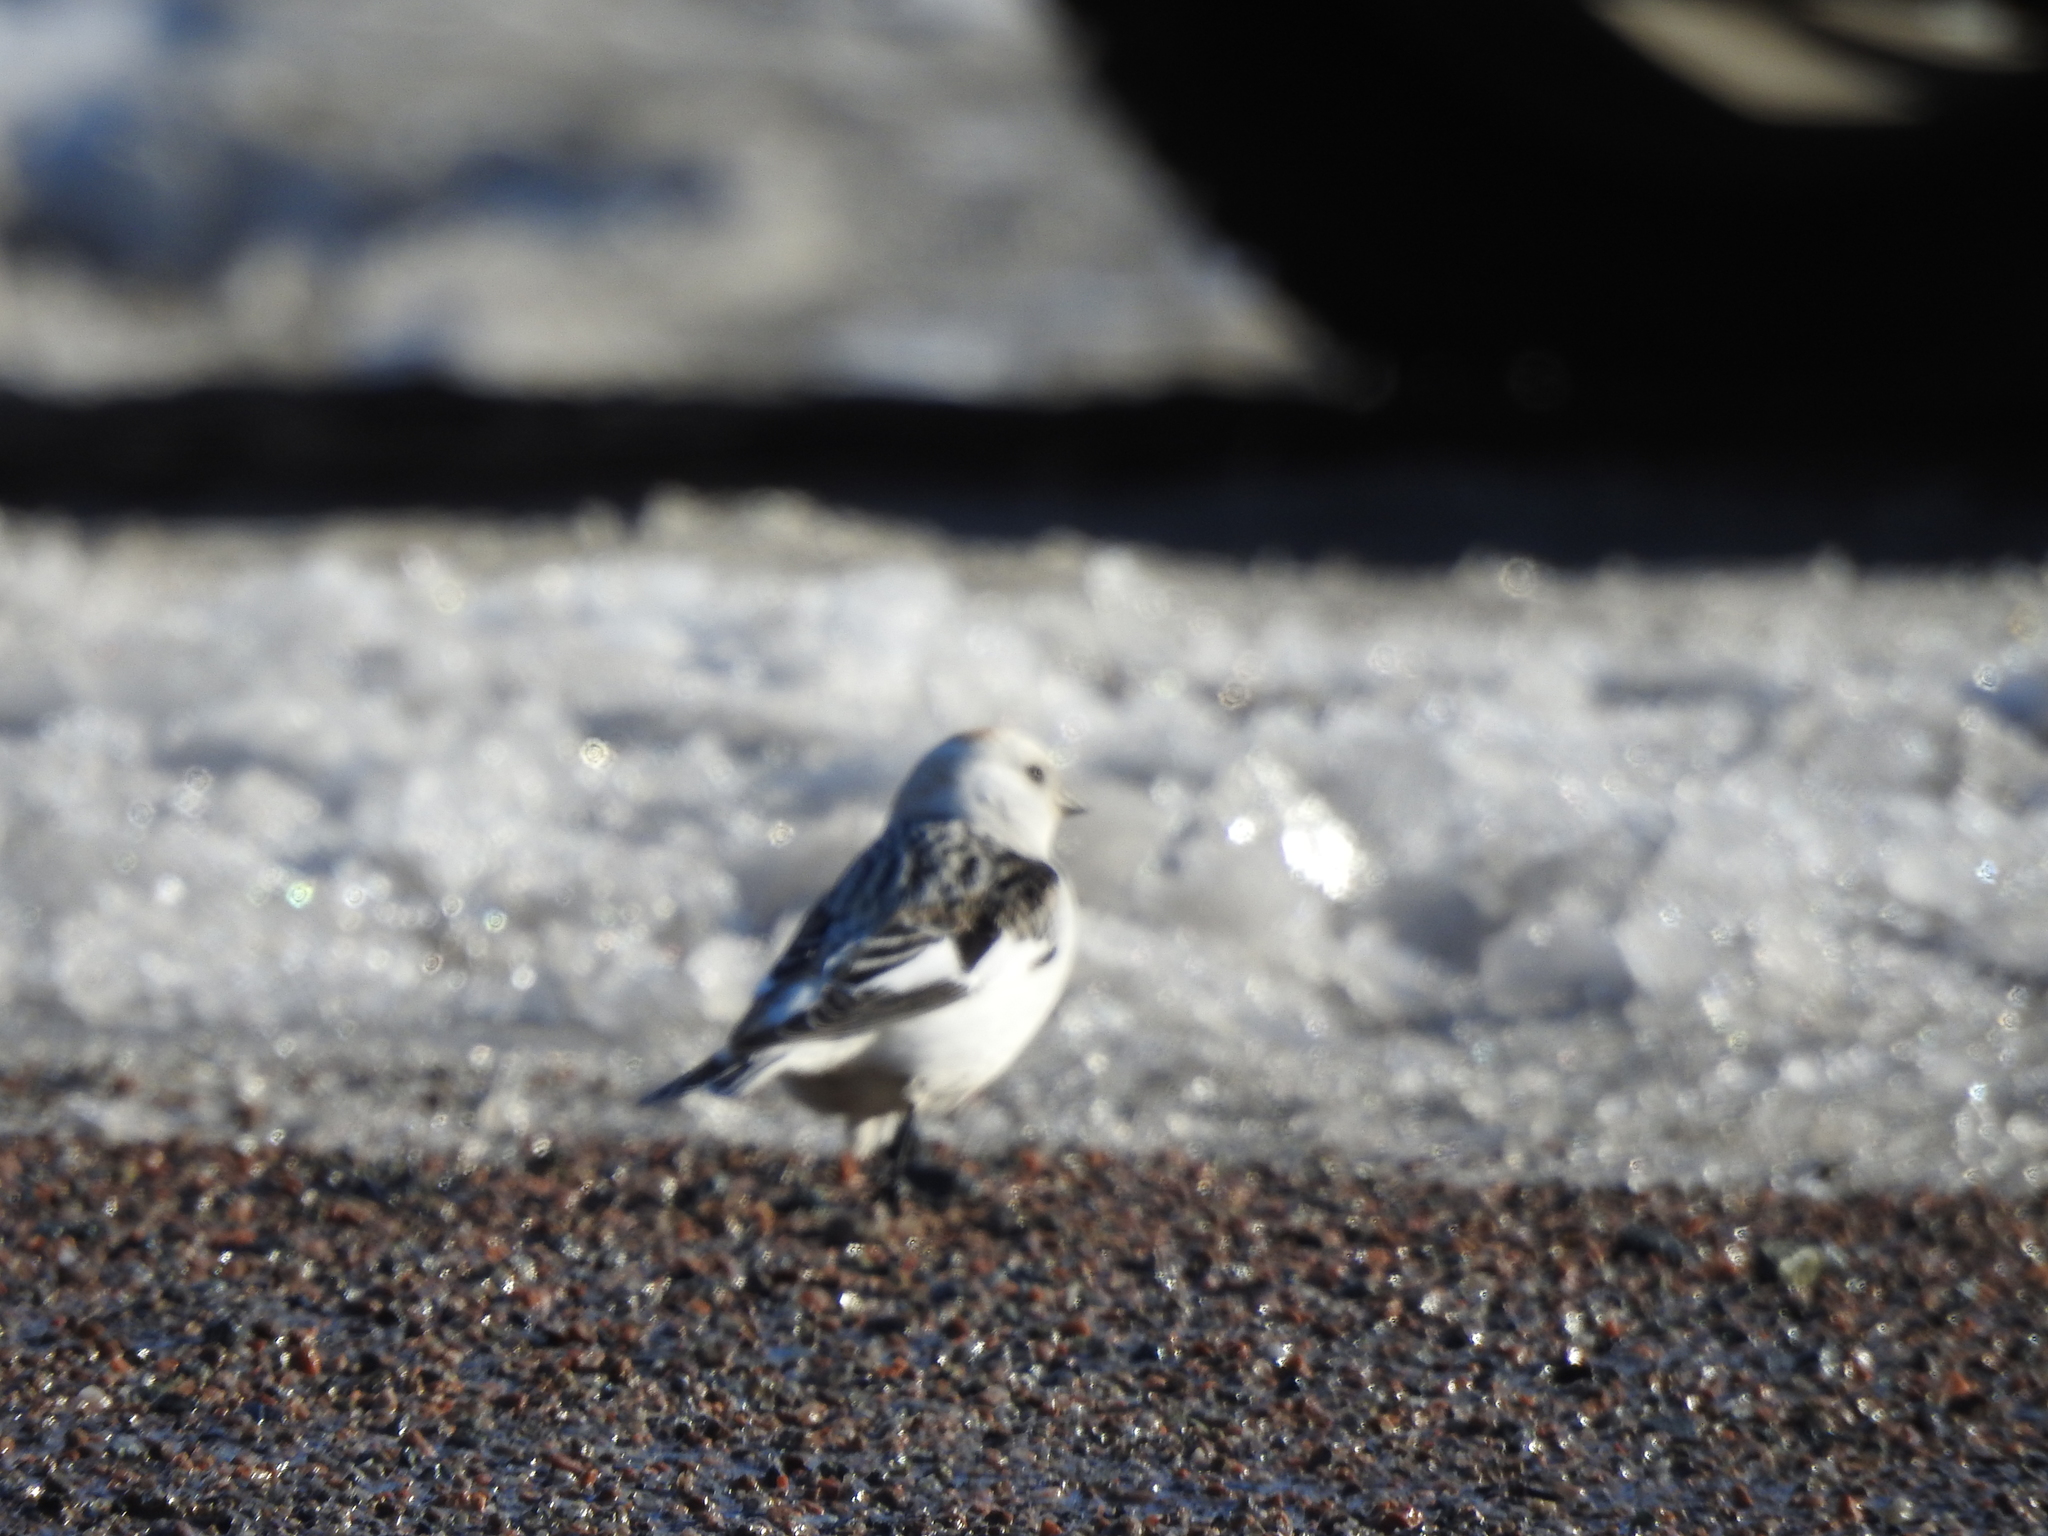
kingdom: Animalia
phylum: Chordata
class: Aves
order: Passeriformes
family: Calcariidae
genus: Plectrophenax
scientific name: Plectrophenax nivalis
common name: Snow bunting
